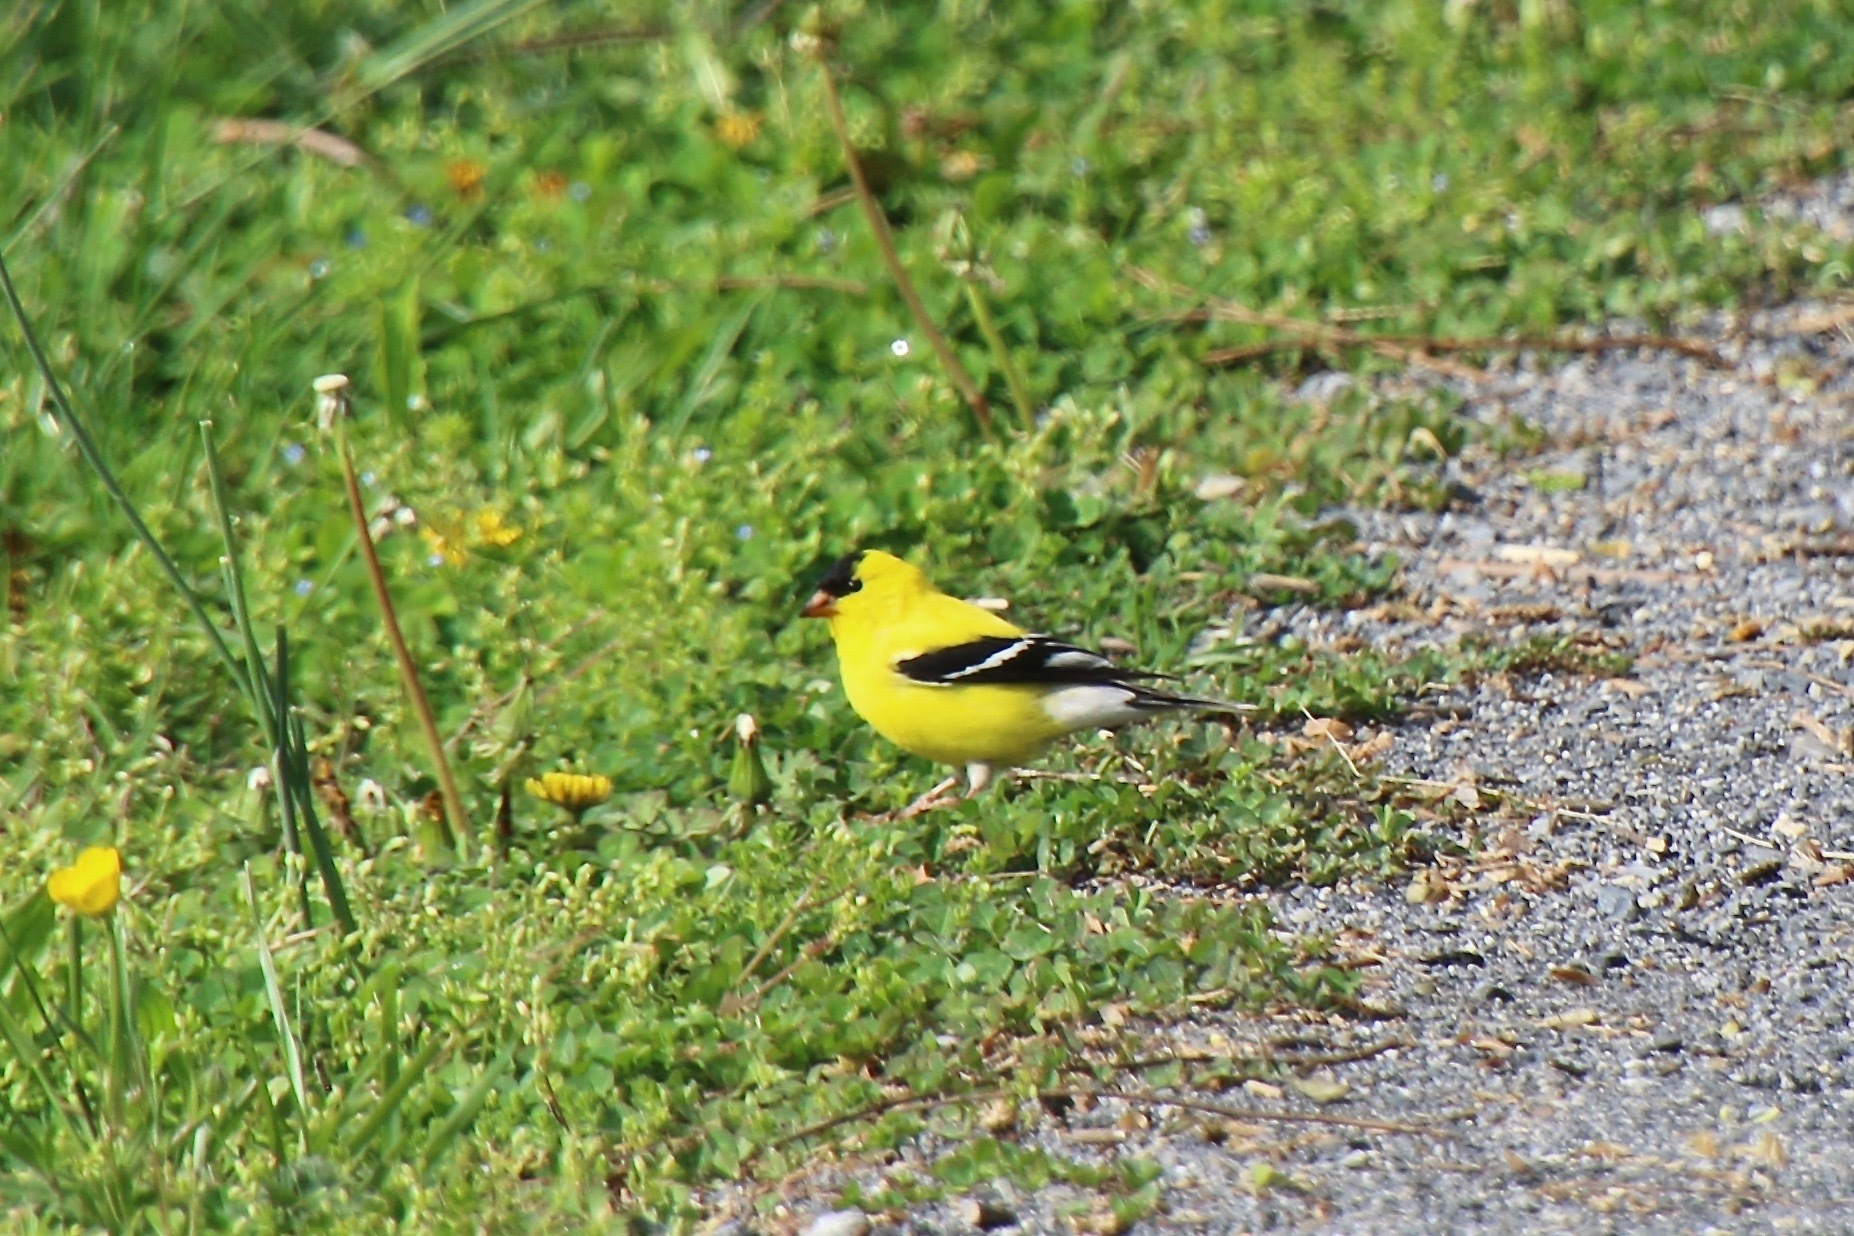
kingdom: Animalia
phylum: Chordata
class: Aves
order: Passeriformes
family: Fringillidae
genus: Spinus
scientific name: Spinus tristis
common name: American goldfinch
